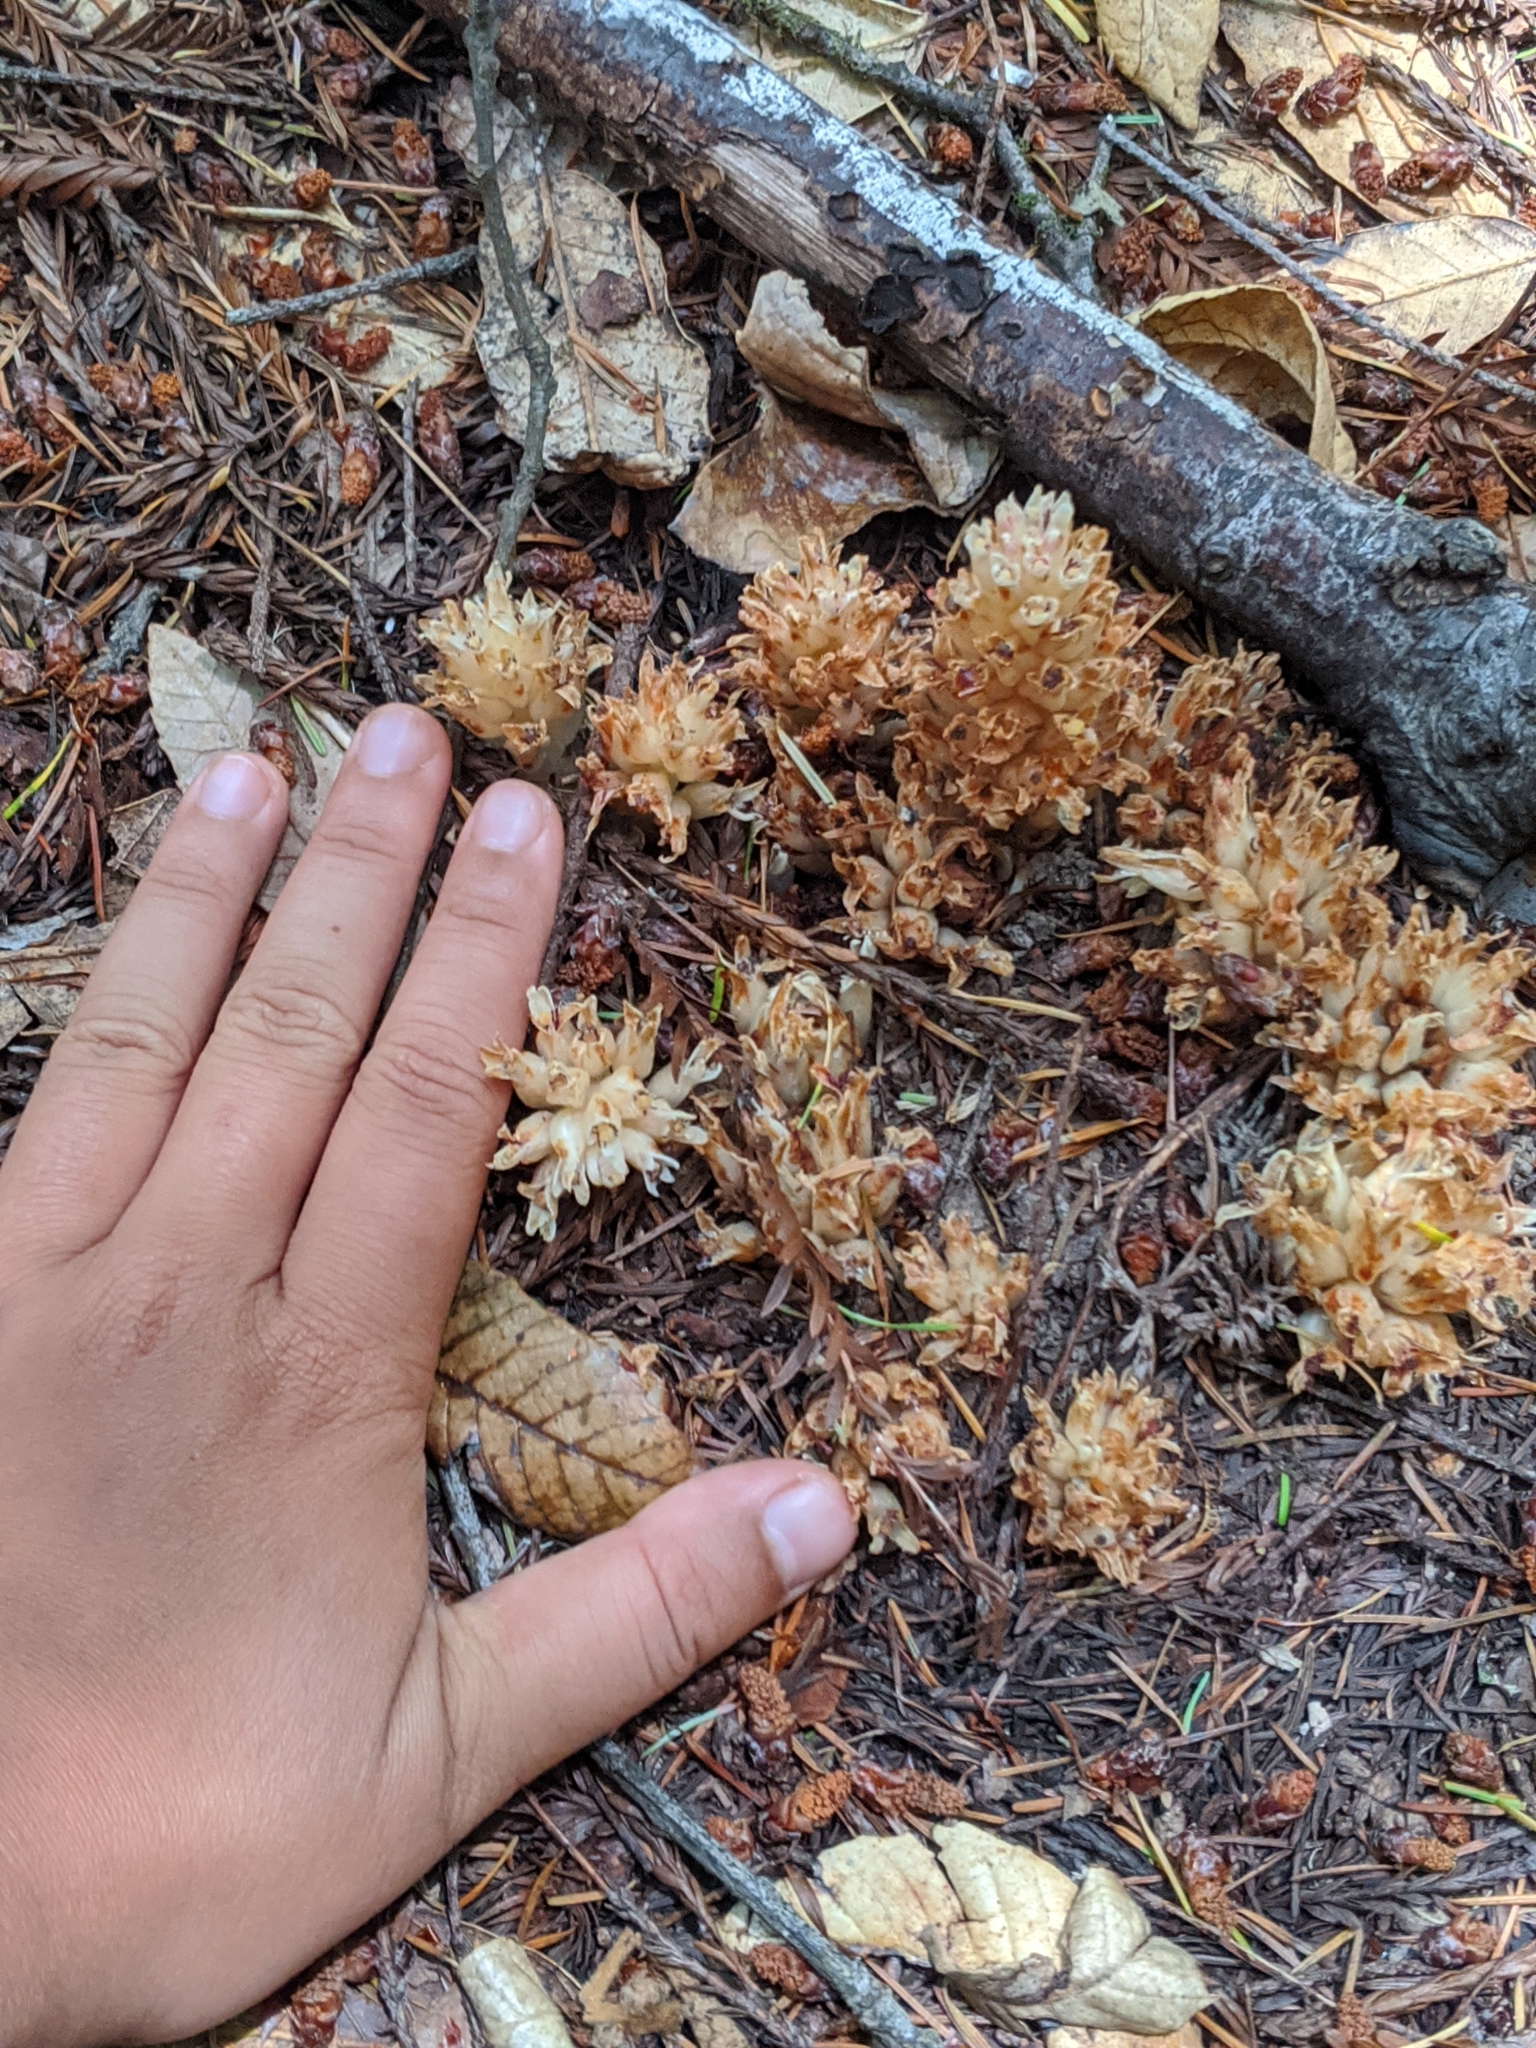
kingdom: Plantae
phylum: Tracheophyta
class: Magnoliopsida
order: Ericales
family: Ericaceae
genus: Pleuricospora
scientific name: Pleuricospora fimbriolata
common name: Fringed pinesap
